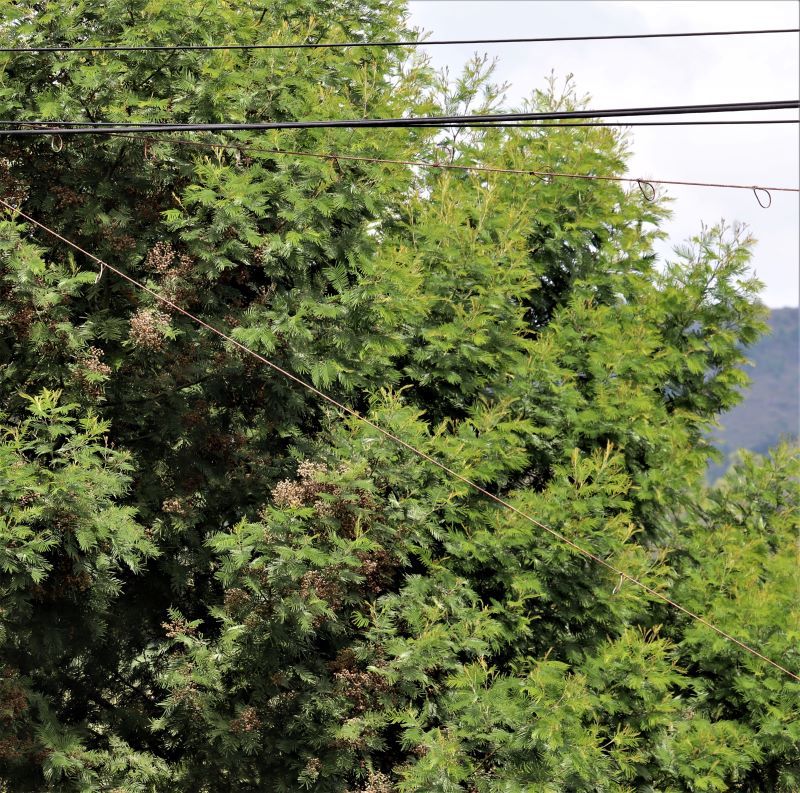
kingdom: Plantae
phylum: Tracheophyta
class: Magnoliopsida
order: Fabales
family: Fabaceae
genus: Acacia
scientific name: Acacia mearnsii
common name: Black wattle
